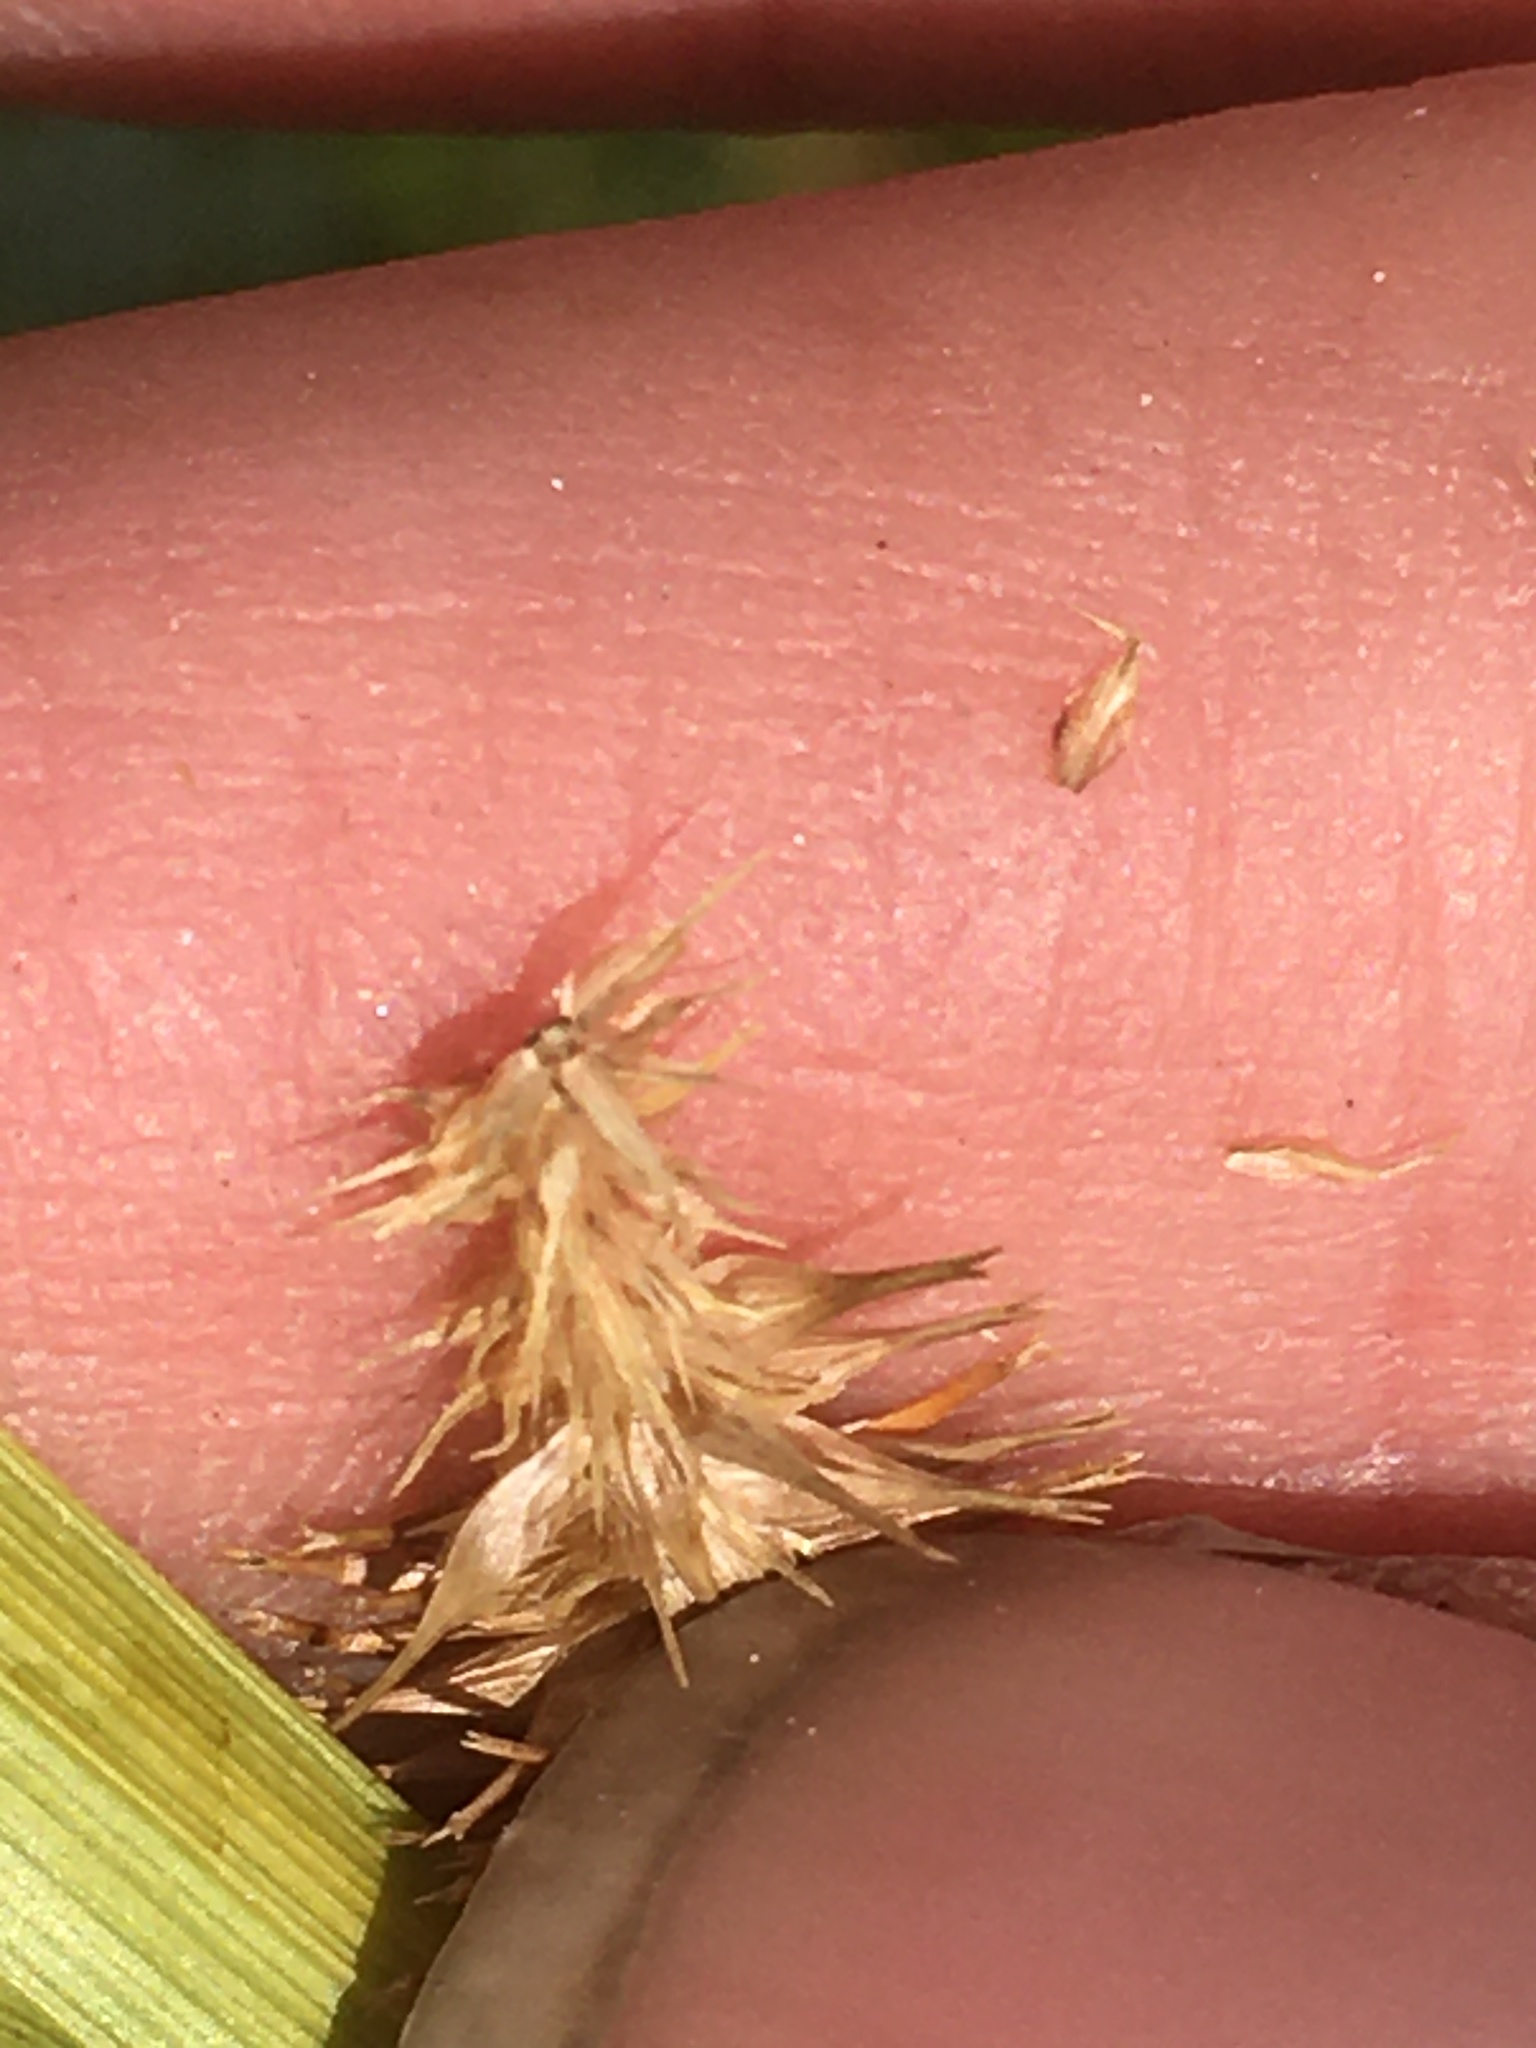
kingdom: Plantae
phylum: Tracheophyta
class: Liliopsida
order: Poales
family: Cyperaceae
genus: Carex
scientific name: Carex hystericina
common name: Bottlebrush sedge
